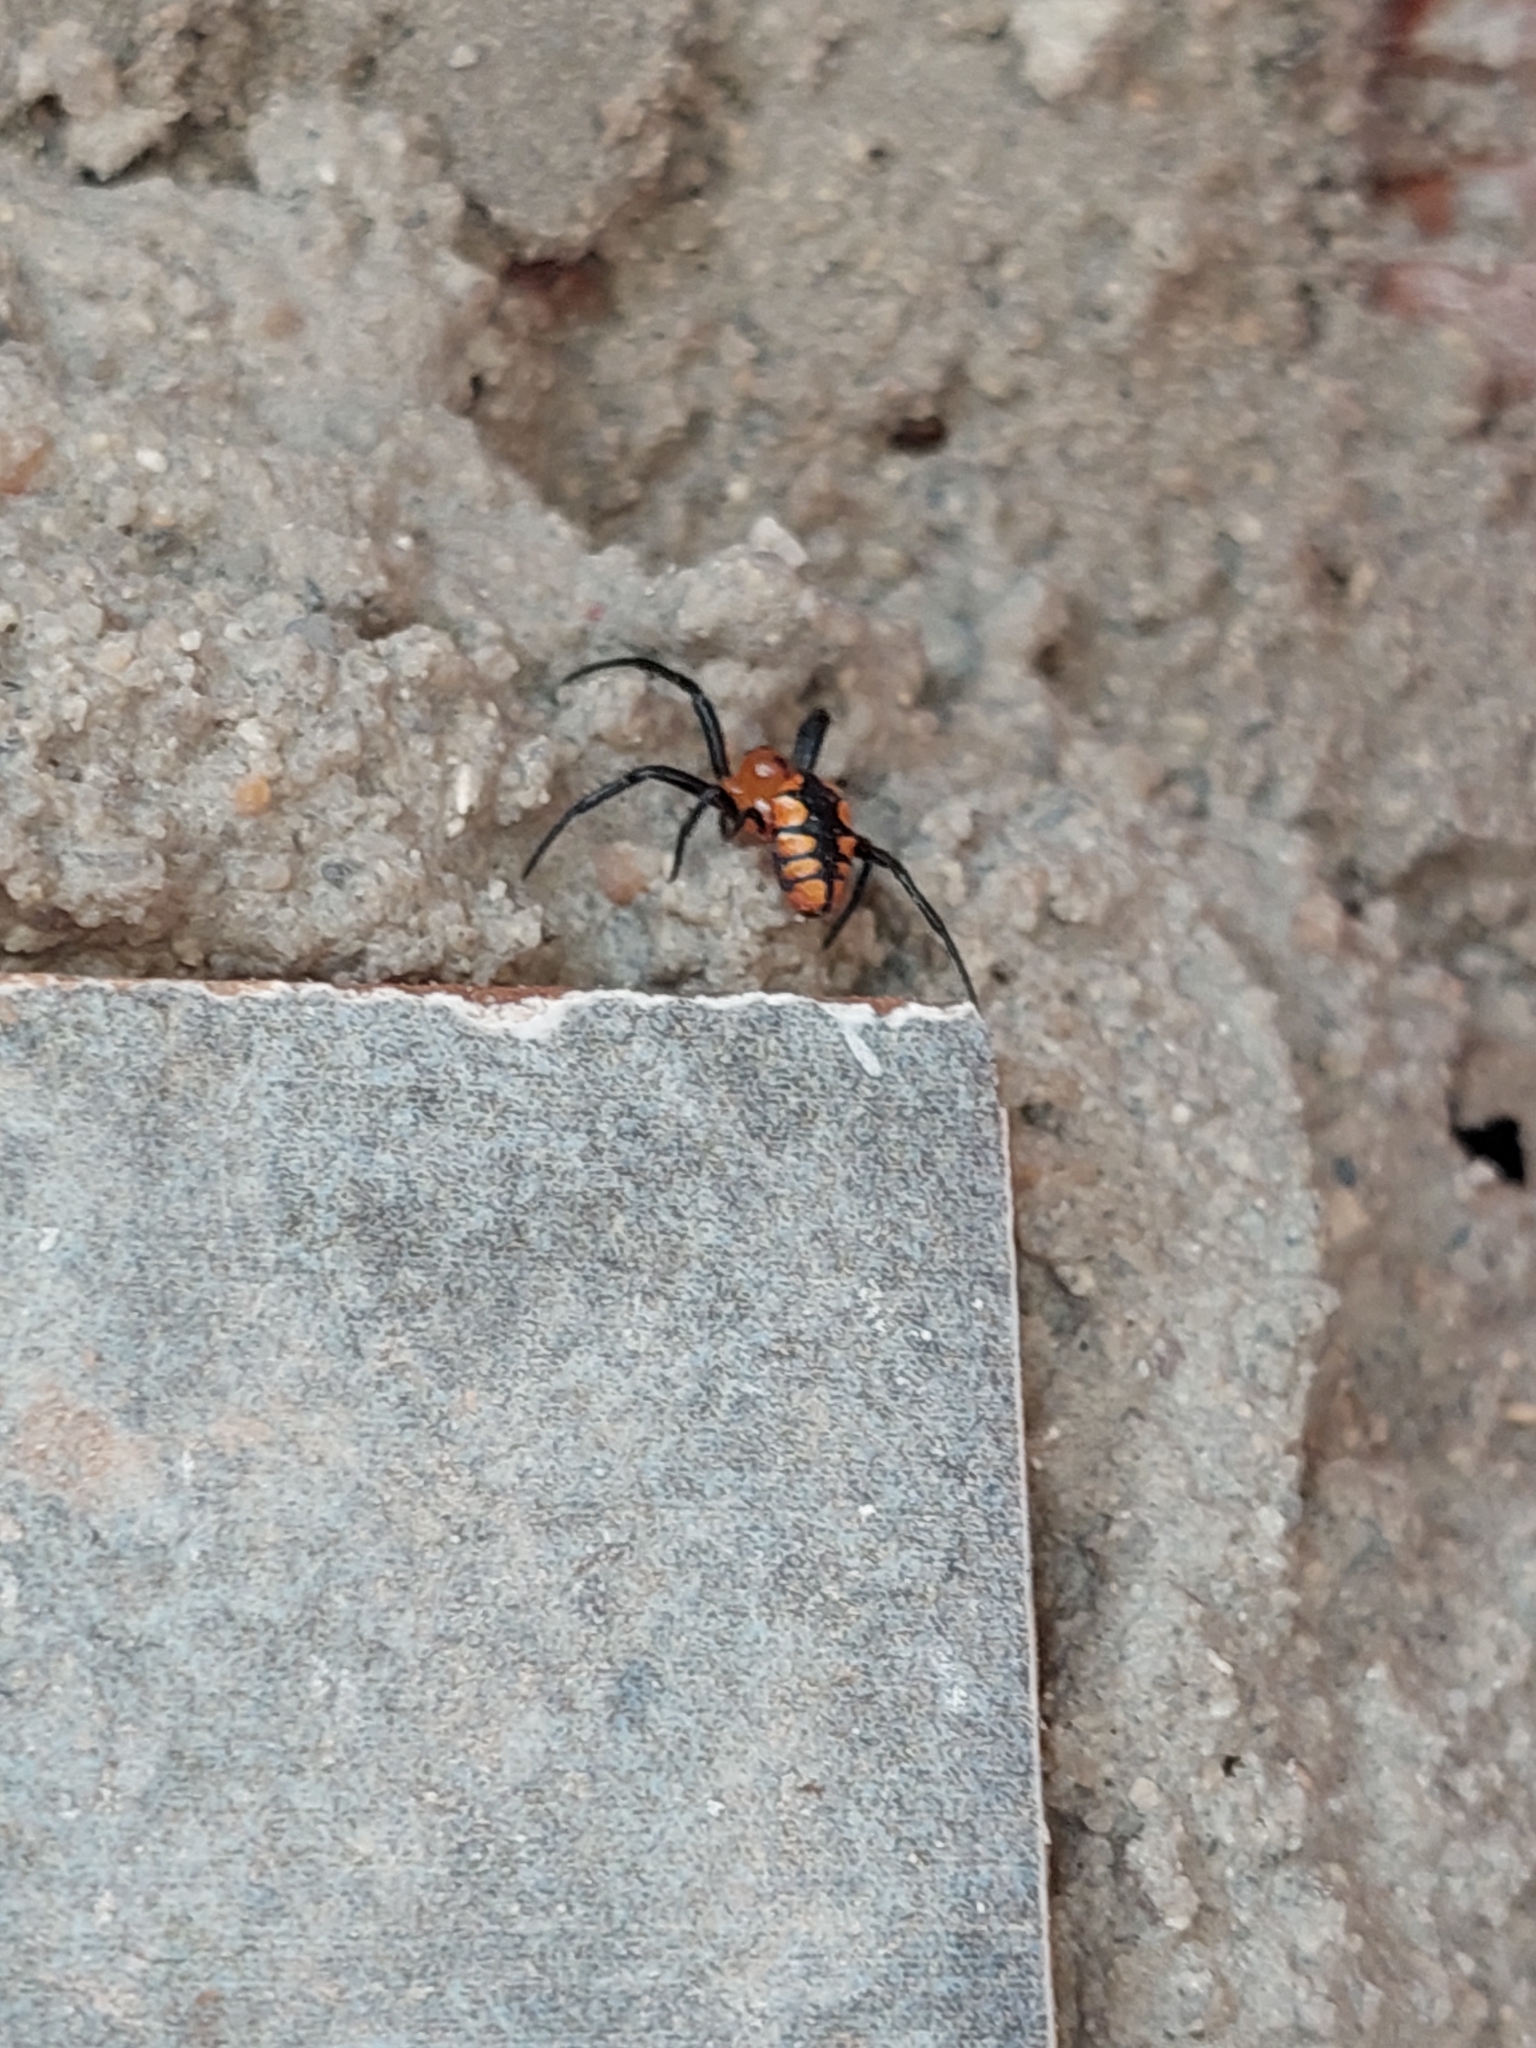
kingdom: Animalia
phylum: Arthropoda
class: Arachnida
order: Araneae
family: Araneidae
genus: Alpaida
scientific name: Alpaida latro
